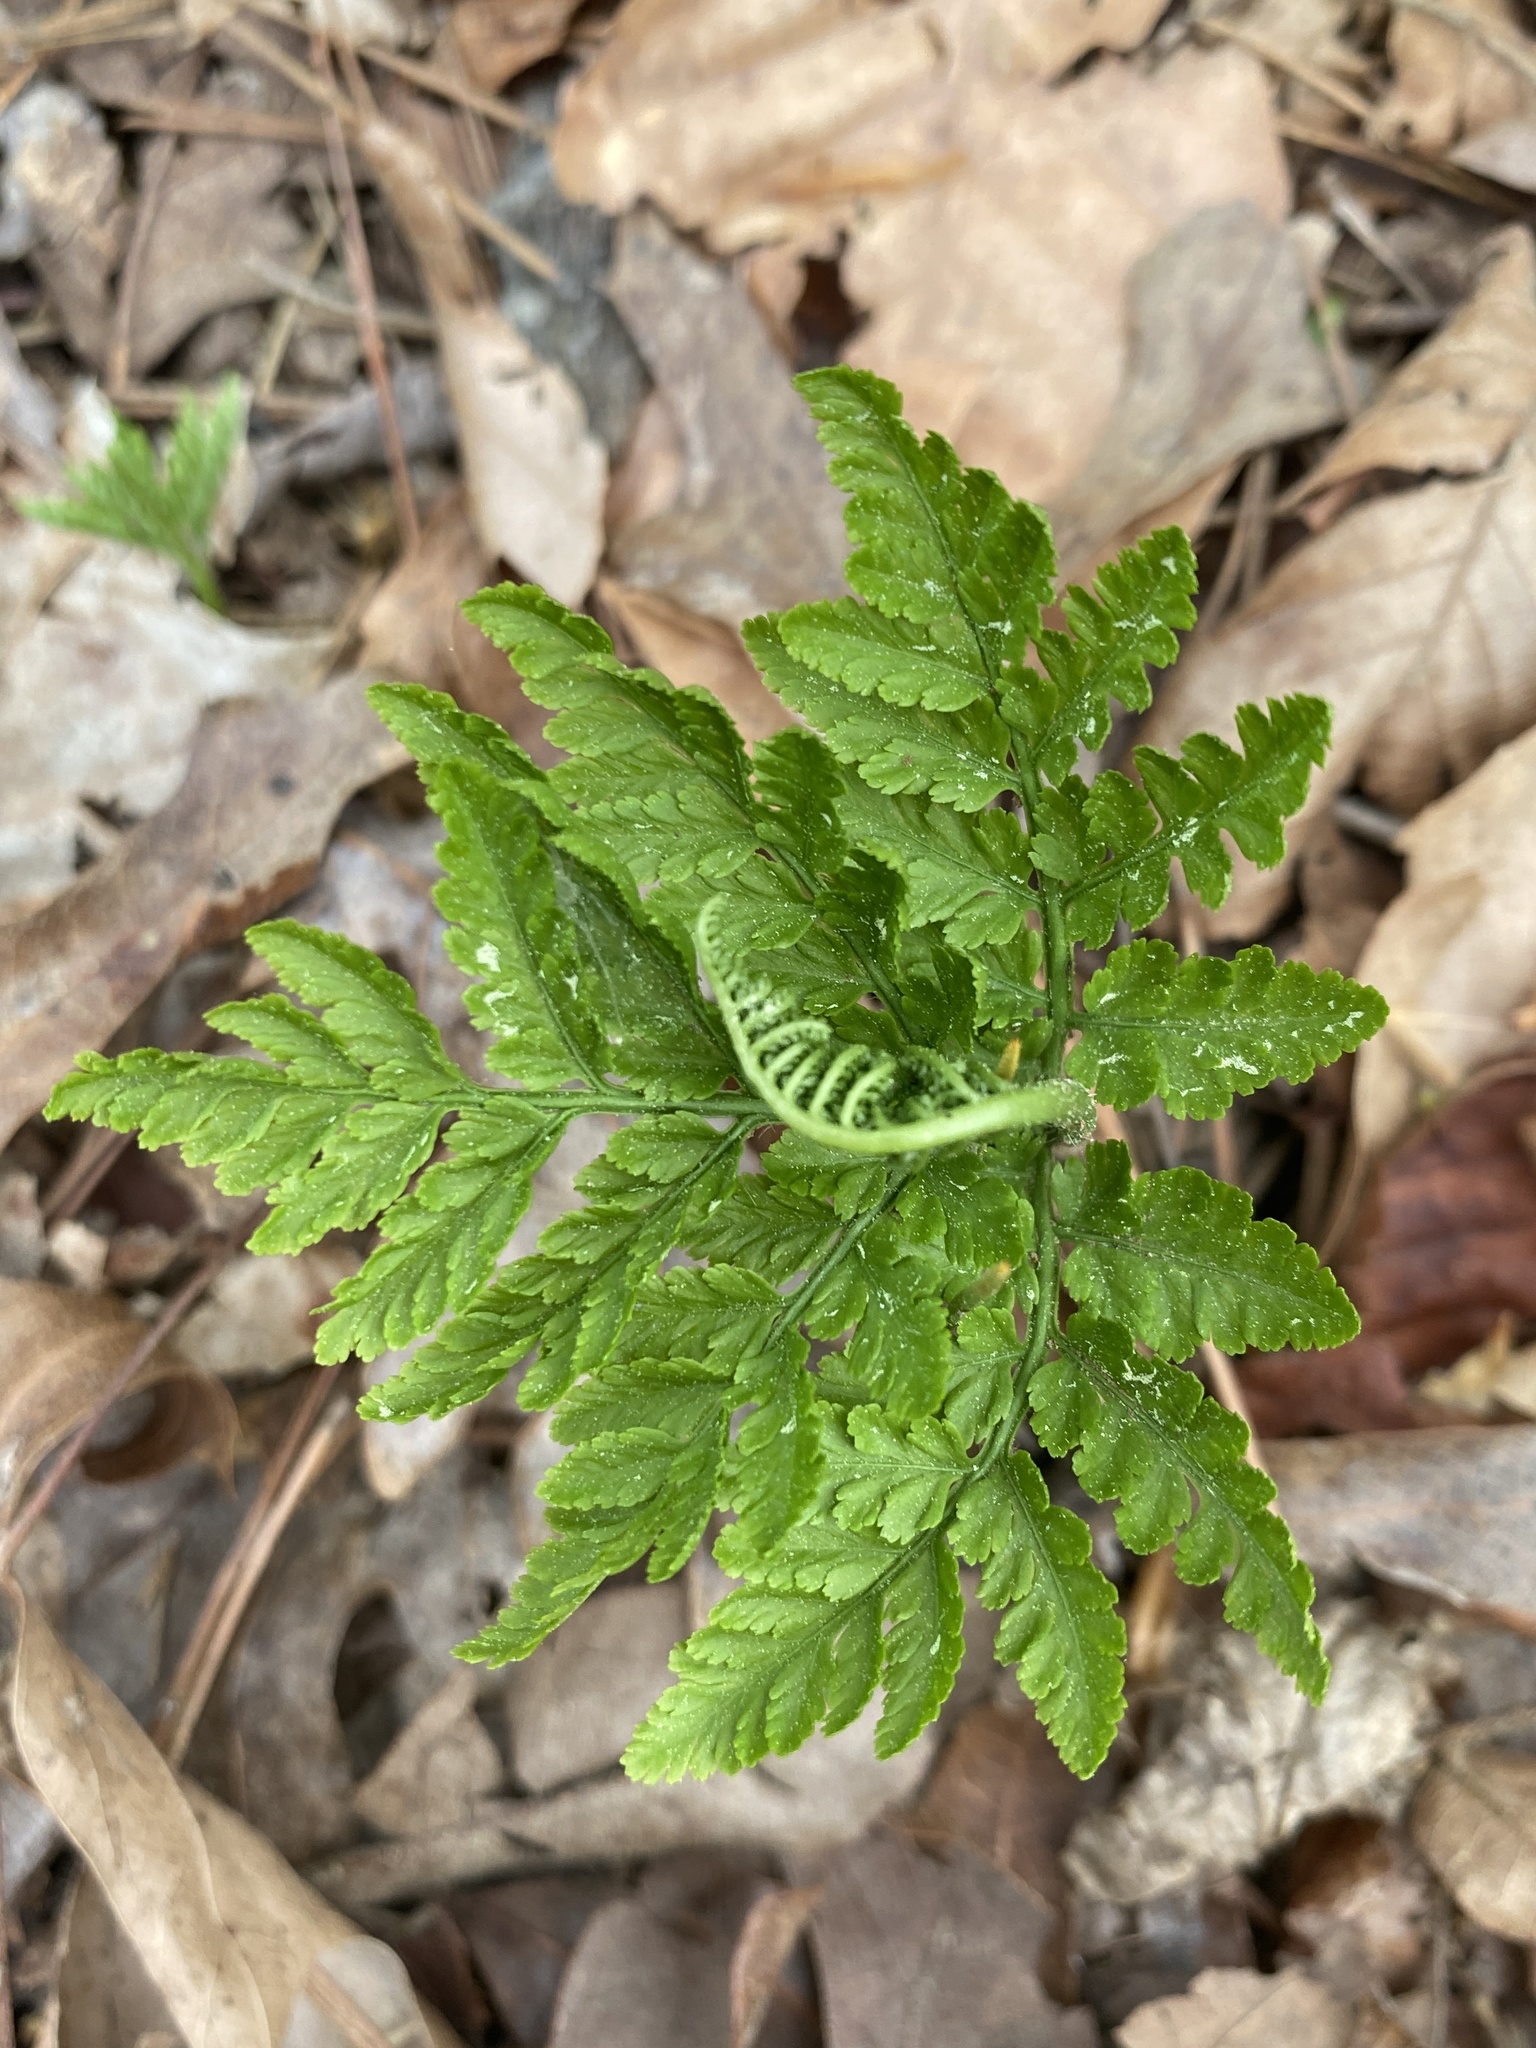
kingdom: Plantae
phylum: Tracheophyta
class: Polypodiopsida
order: Ophioglossales
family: Ophioglossaceae
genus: Botrypus
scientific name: Botrypus virginianus
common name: Common grapefern
